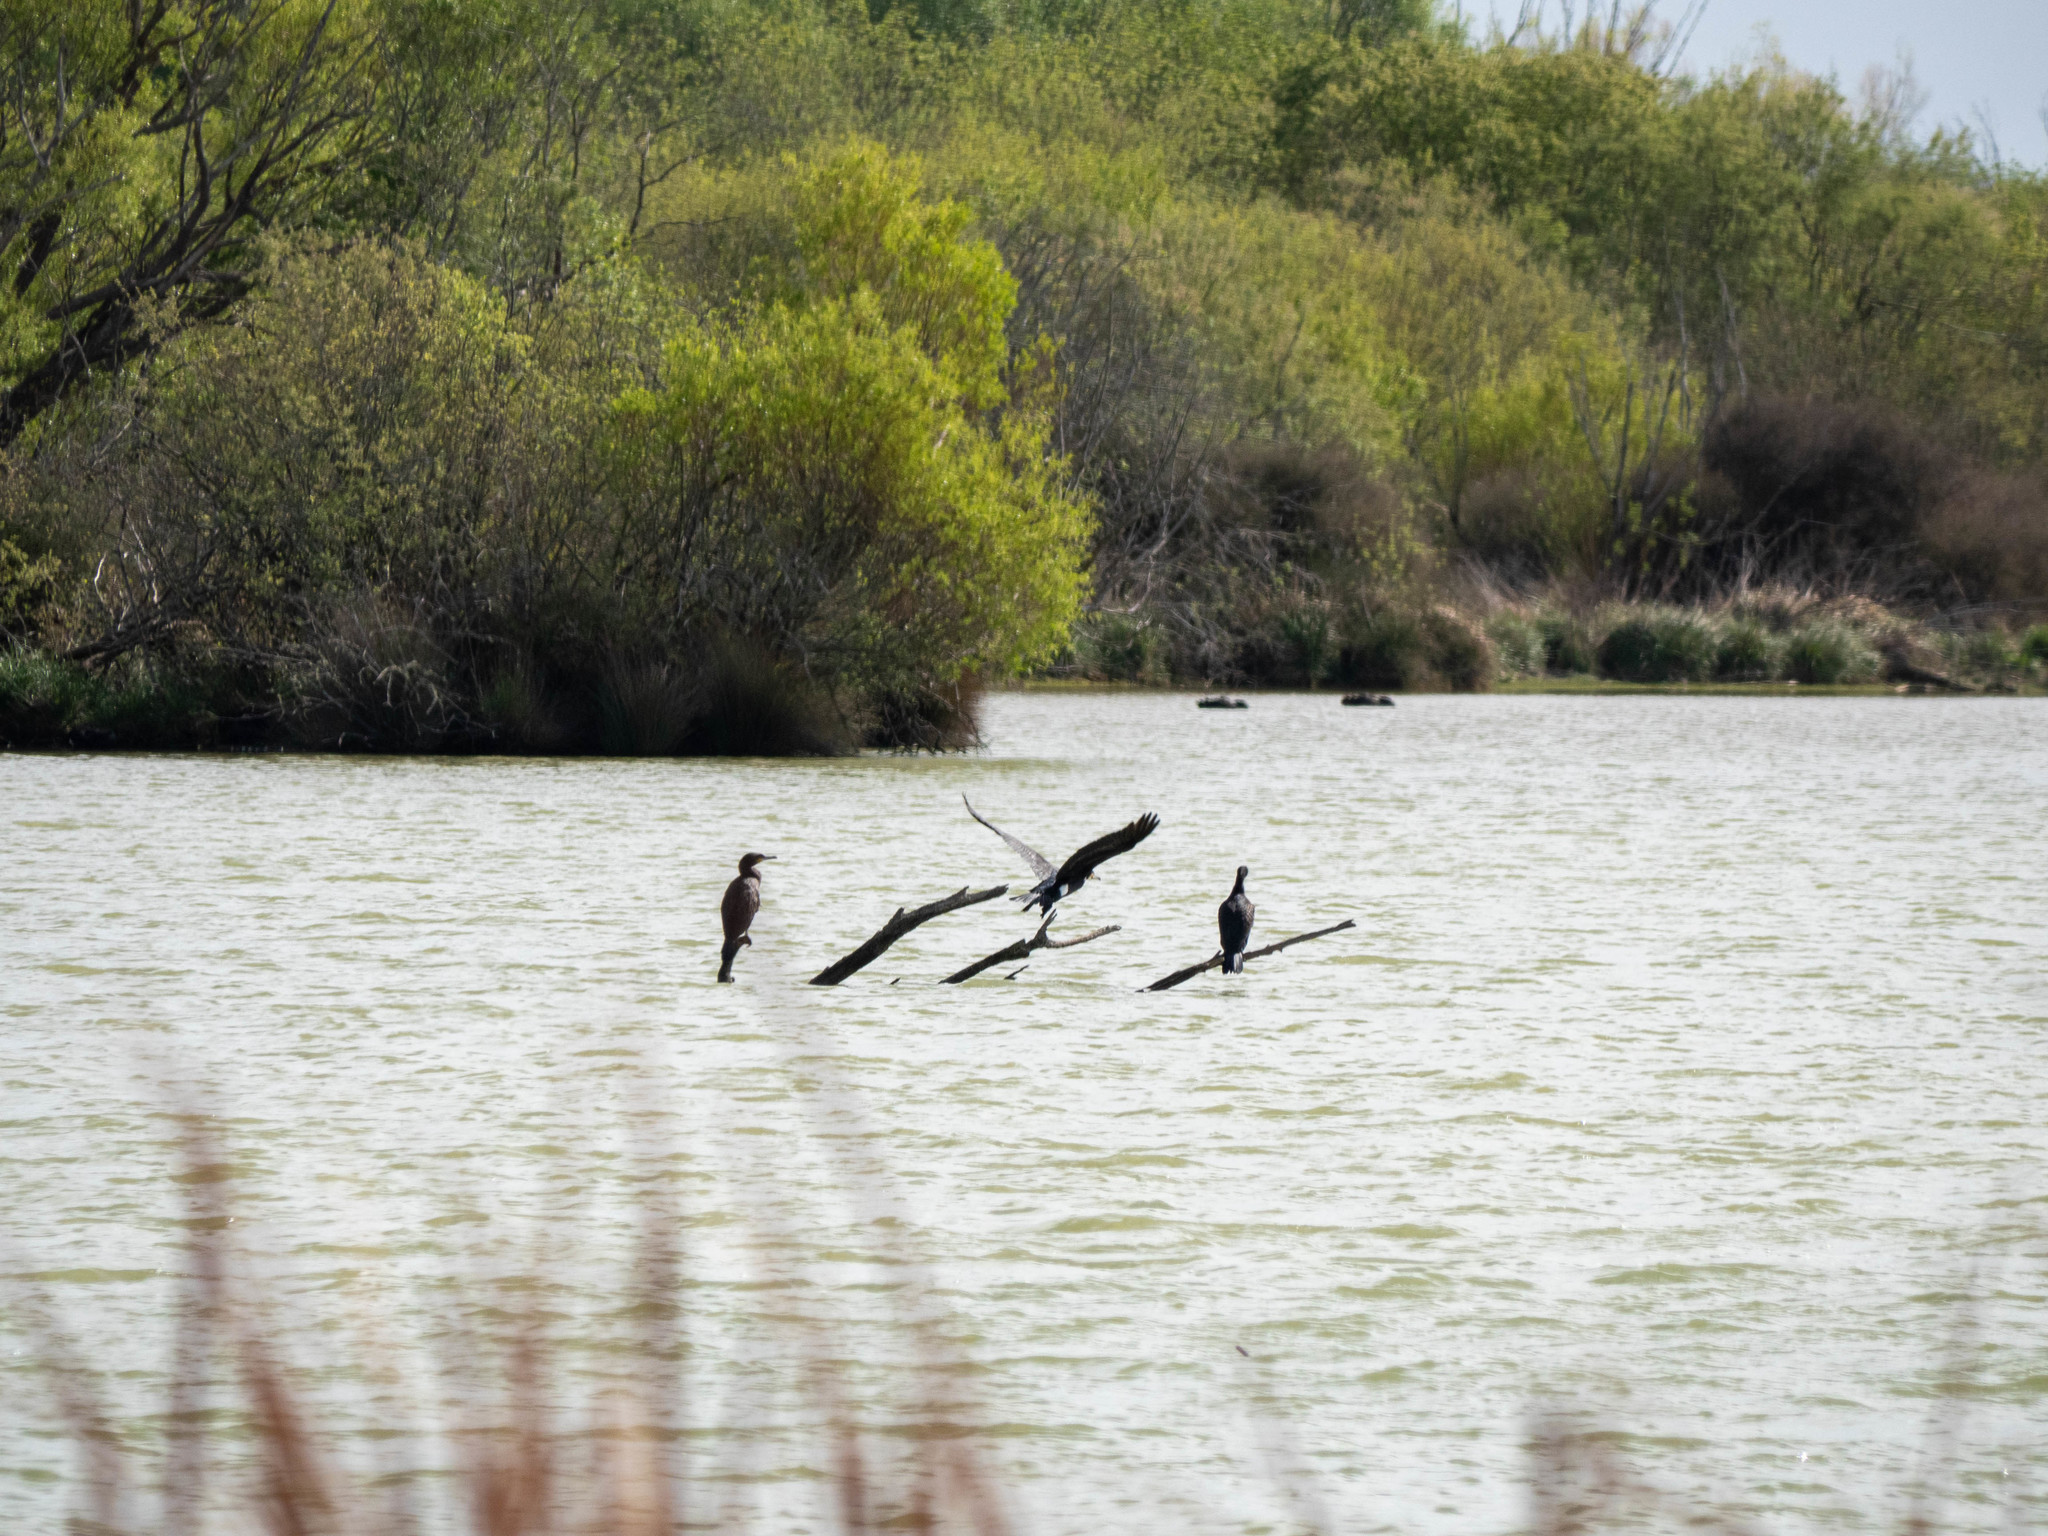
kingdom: Animalia
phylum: Chordata
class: Aves
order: Suliformes
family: Phalacrocoracidae
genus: Phalacrocorax
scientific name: Phalacrocorax carbo
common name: Great cormorant
